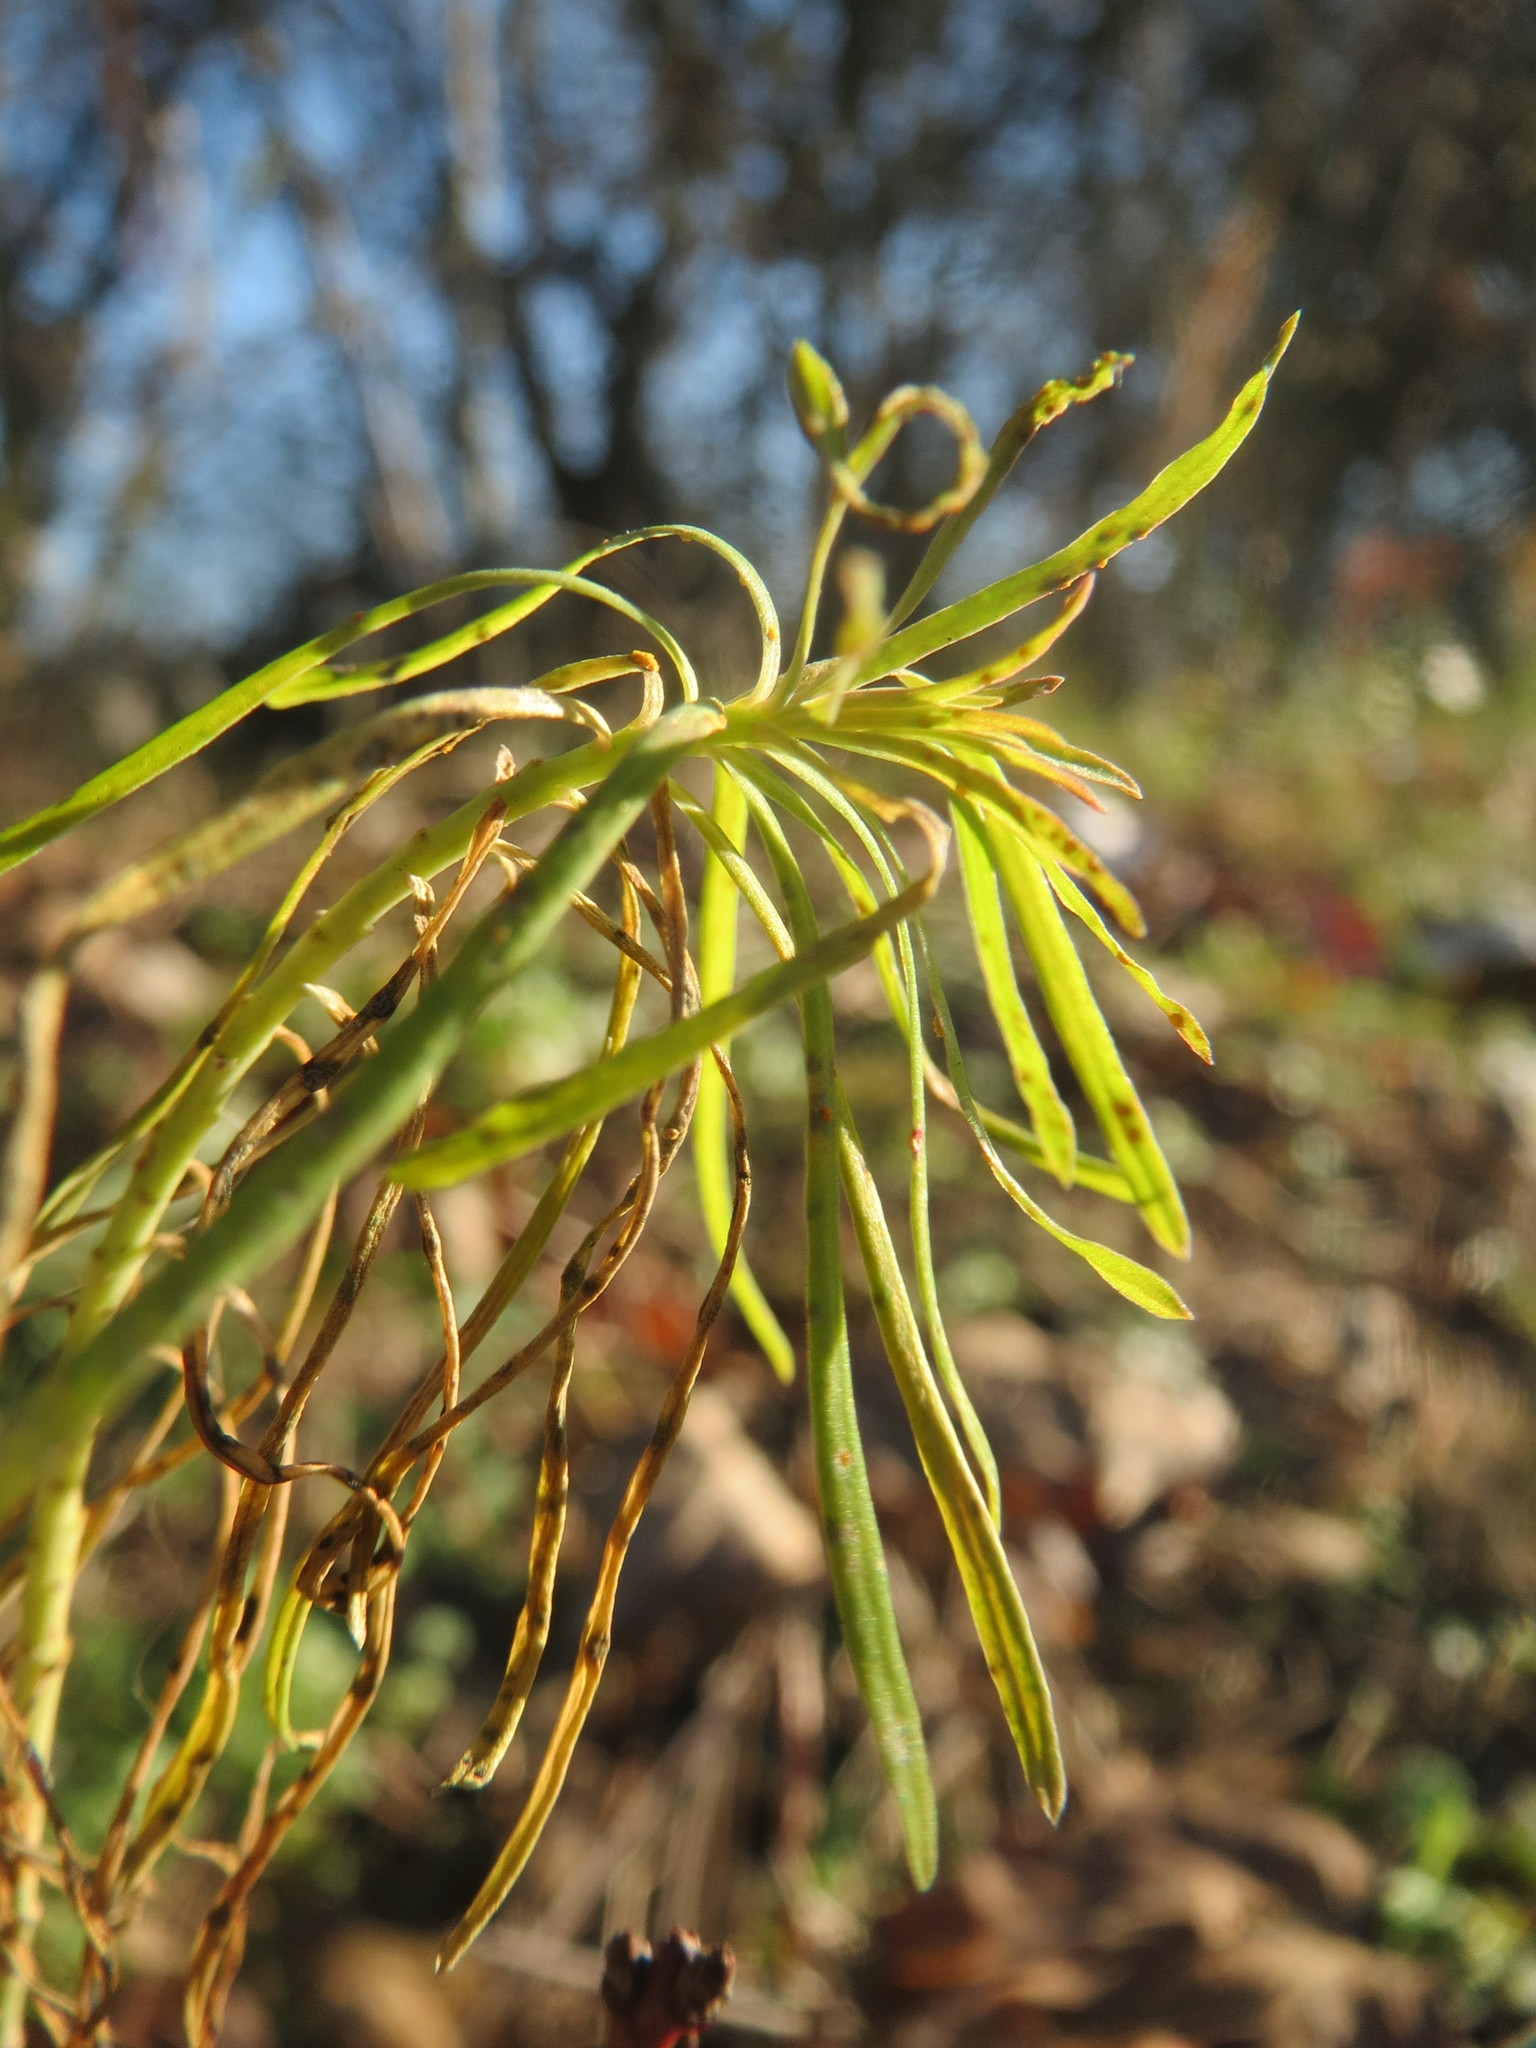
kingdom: Plantae
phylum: Tracheophyta
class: Magnoliopsida
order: Malpighiales
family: Euphorbiaceae
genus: Euphorbia
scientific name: Euphorbia cyparissias
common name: Cypress spurge
